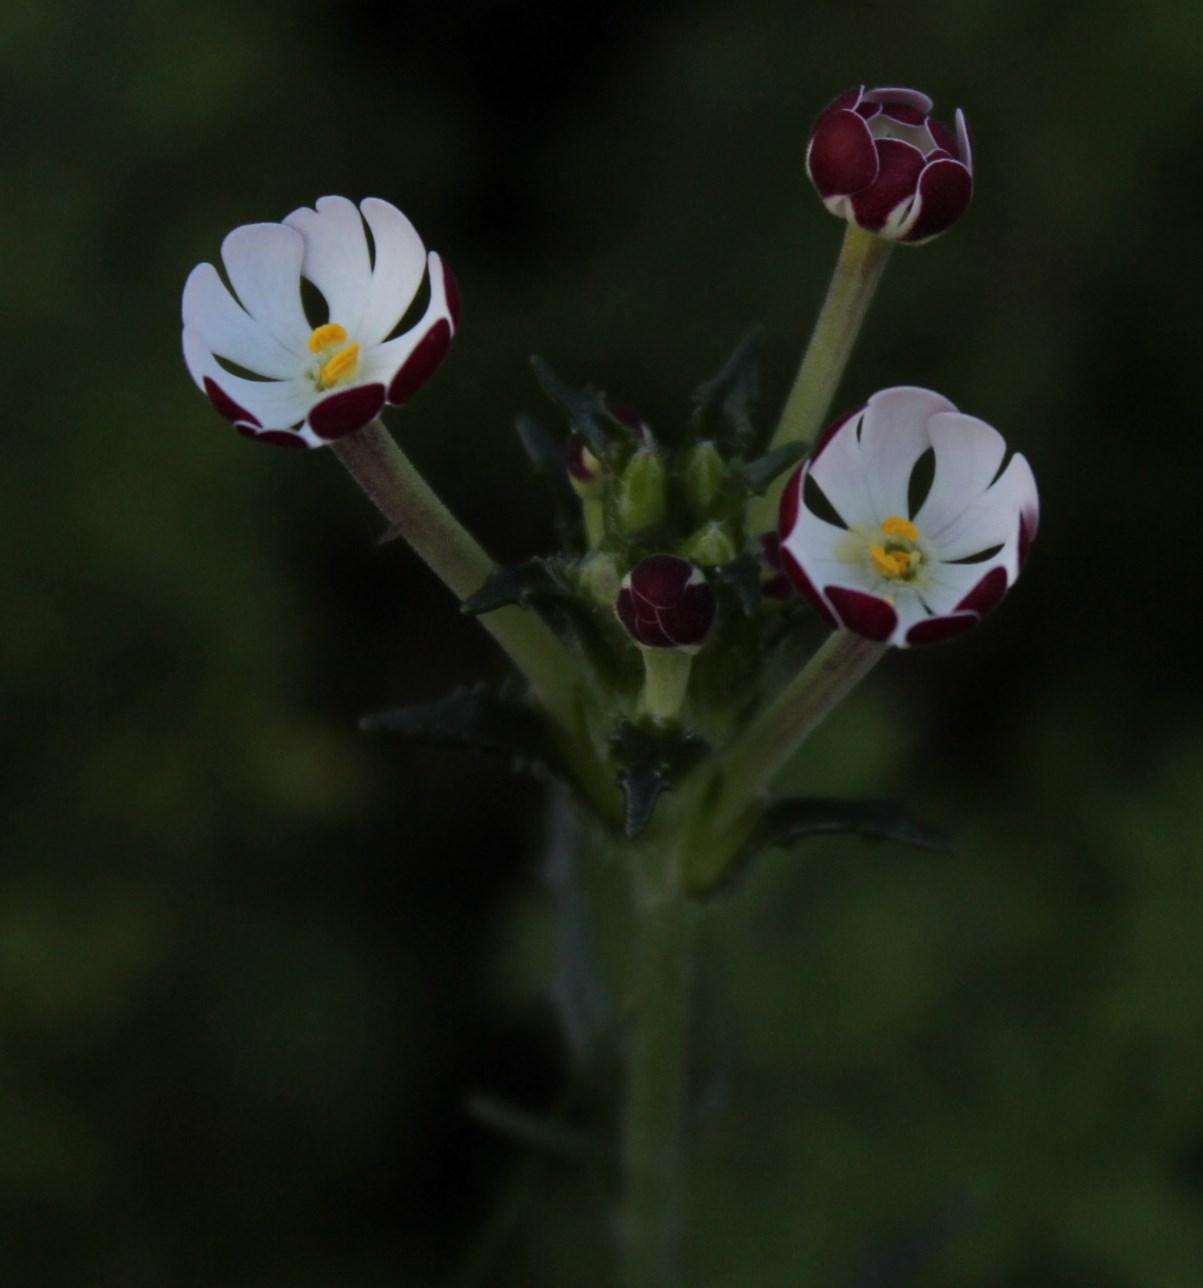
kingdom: Plantae
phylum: Tracheophyta
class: Magnoliopsida
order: Lamiales
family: Scrophulariaceae
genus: Zaluzianskya
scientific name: Zaluzianskya capensis
